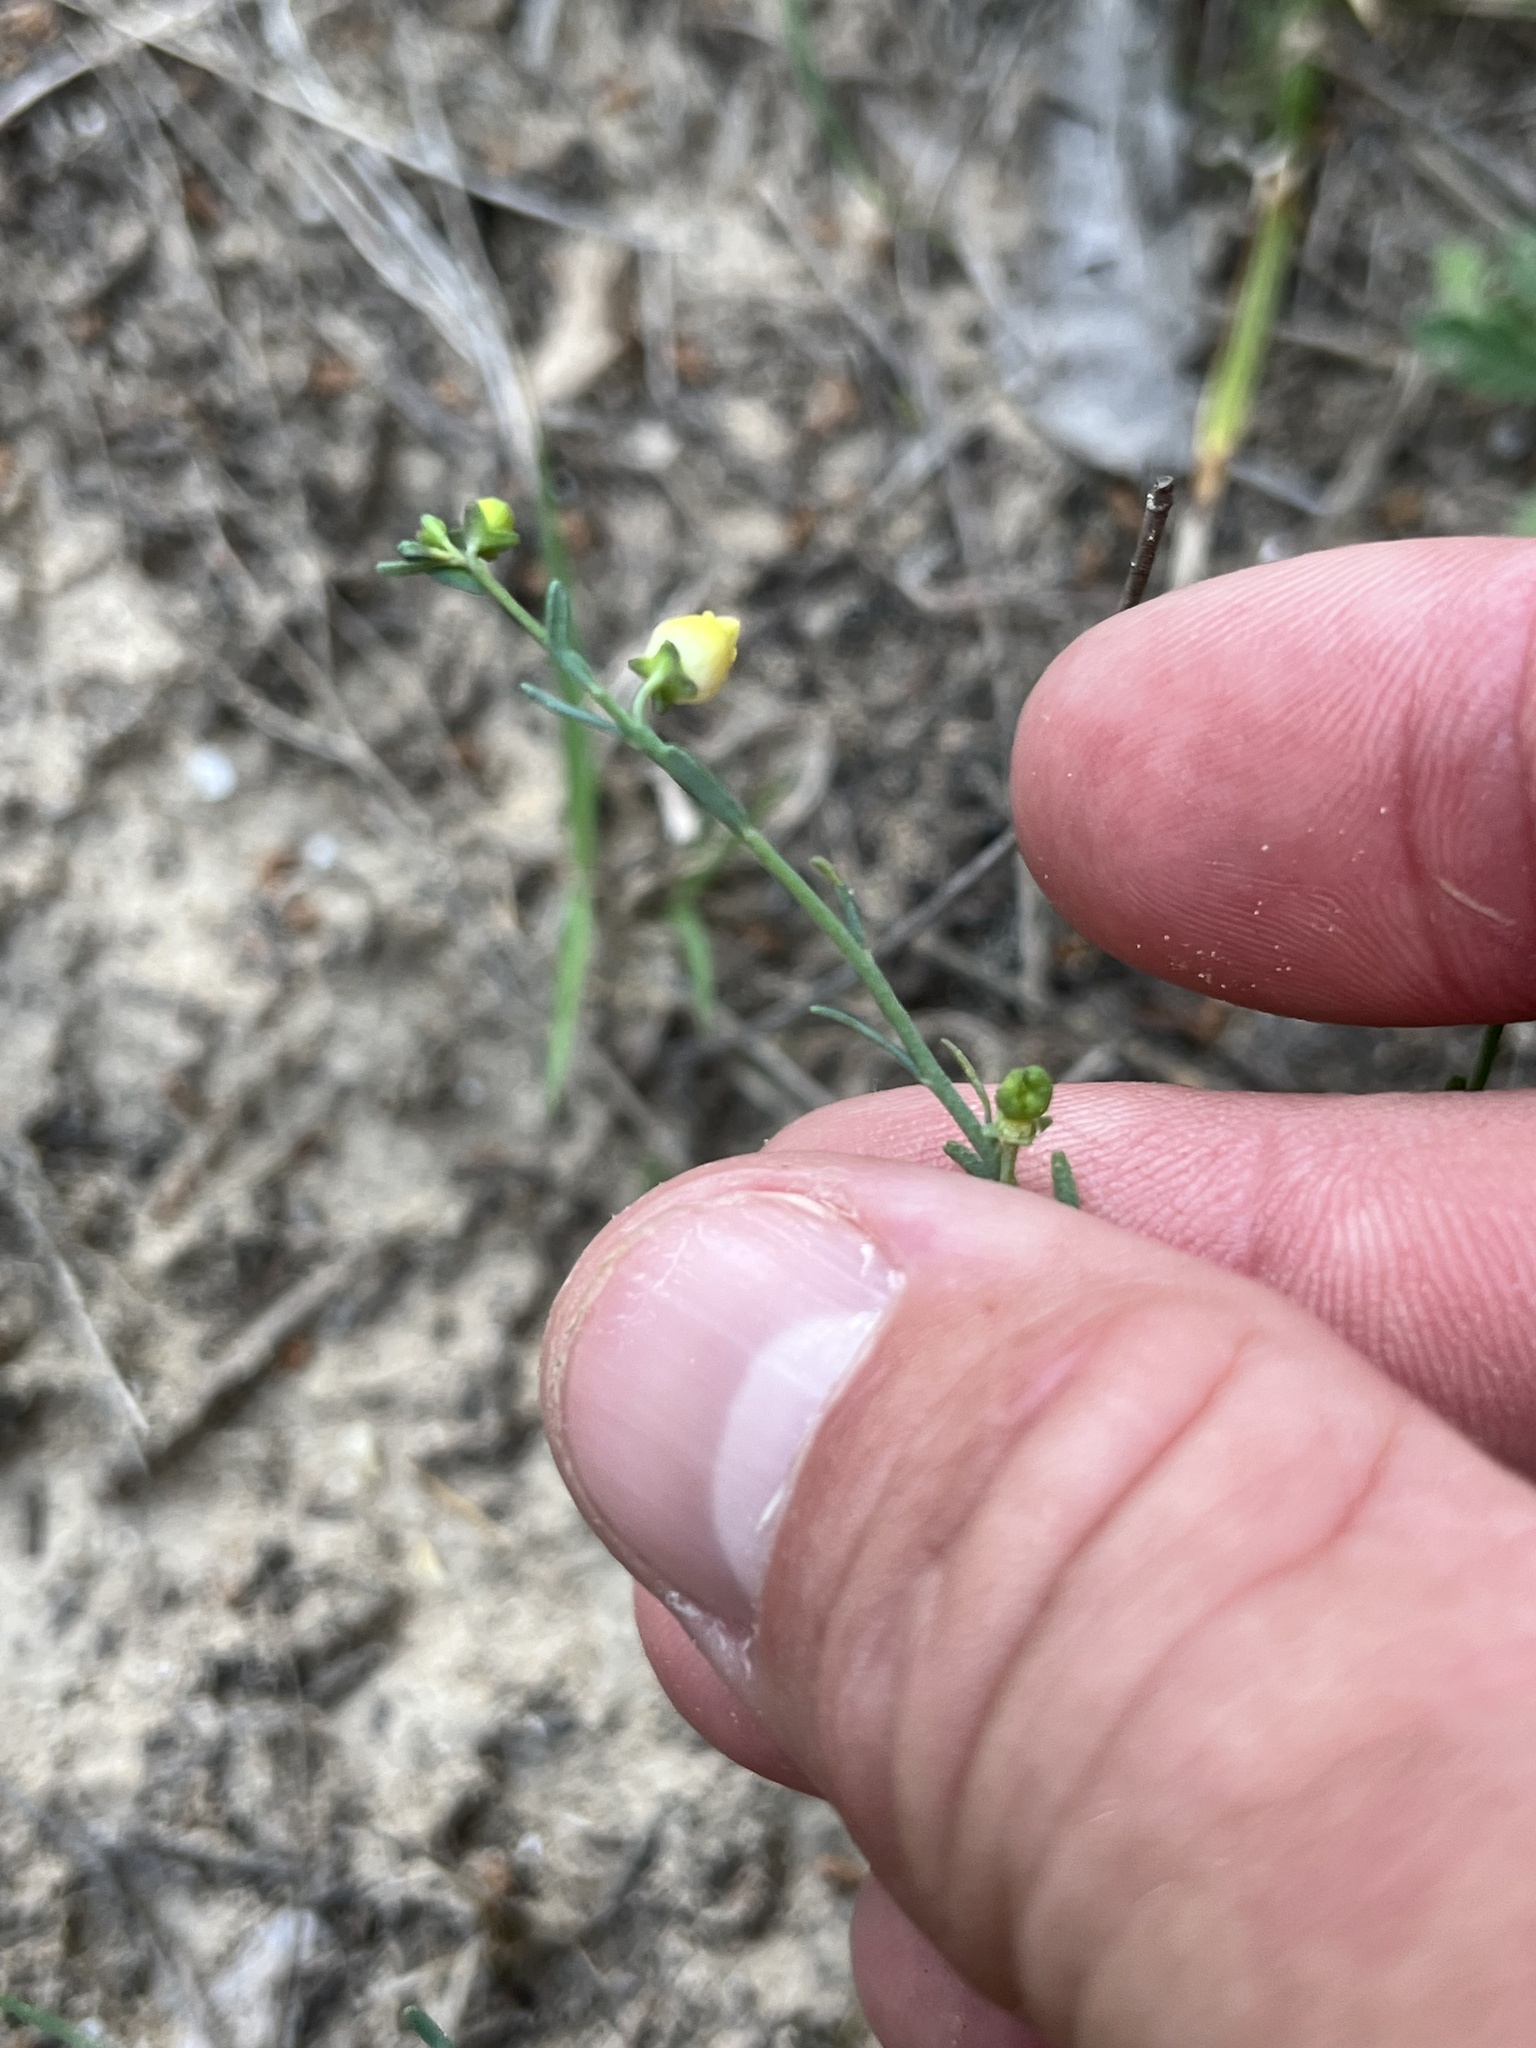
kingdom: Plantae
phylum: Tracheophyta
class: Magnoliopsida
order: Sapindales
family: Rutaceae
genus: Thamnosma
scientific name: Thamnosma texana
